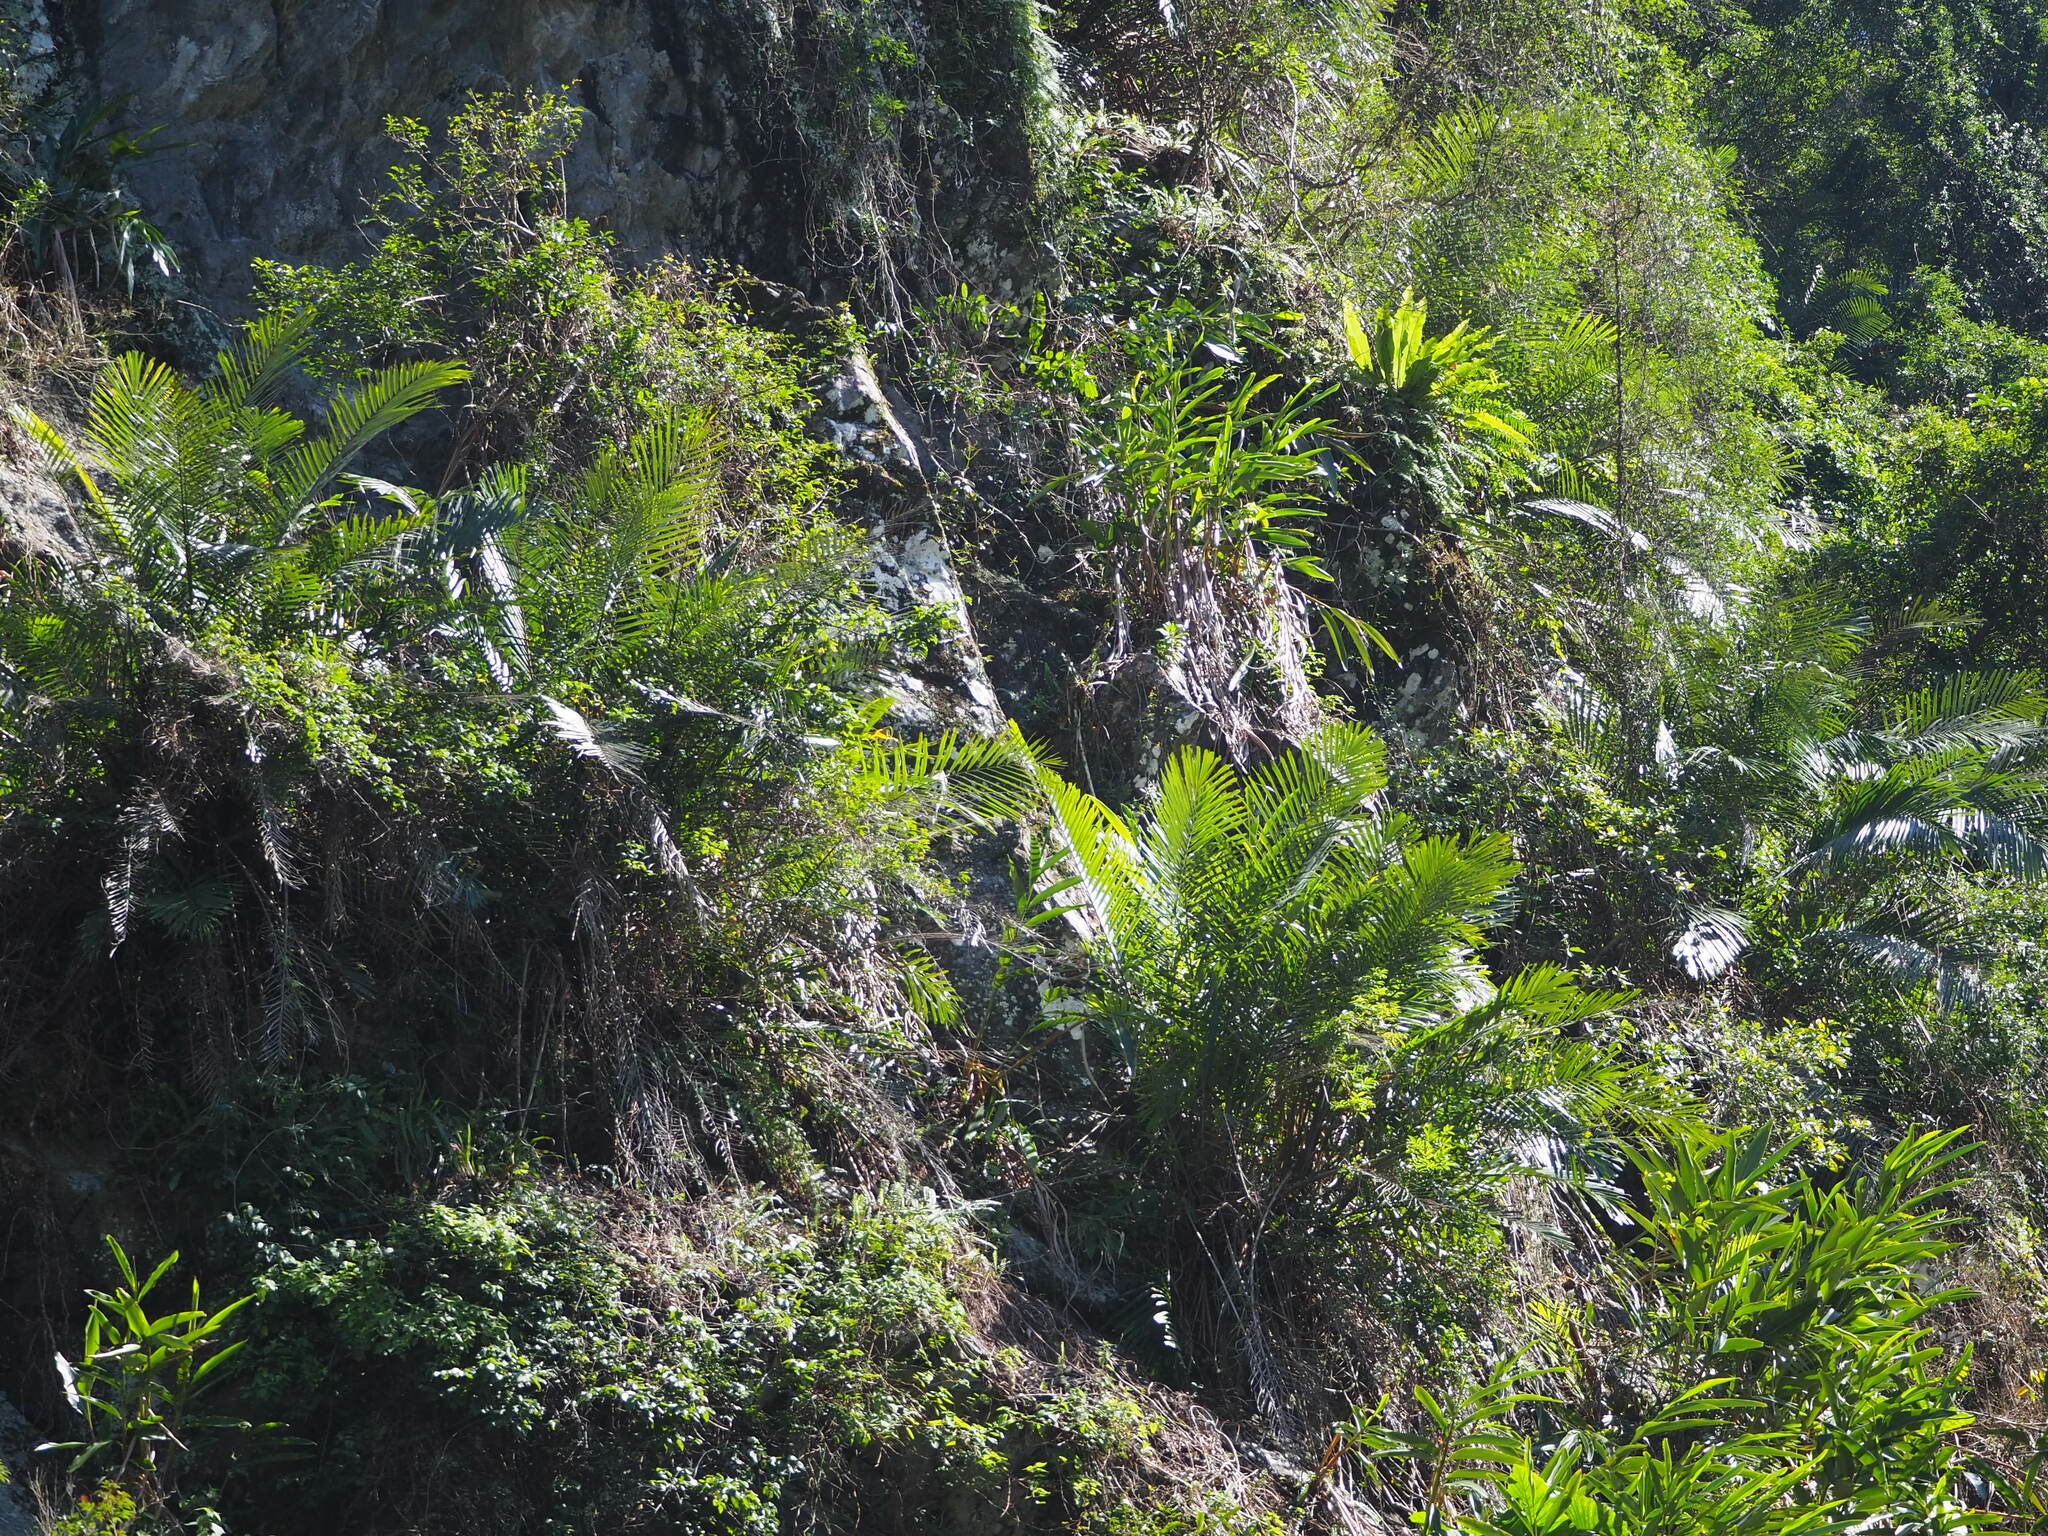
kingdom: Plantae
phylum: Tracheophyta
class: Liliopsida
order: Arecales
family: Arecaceae
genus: Arenga
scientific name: Arenga engleri
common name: Formosan sugar palm
